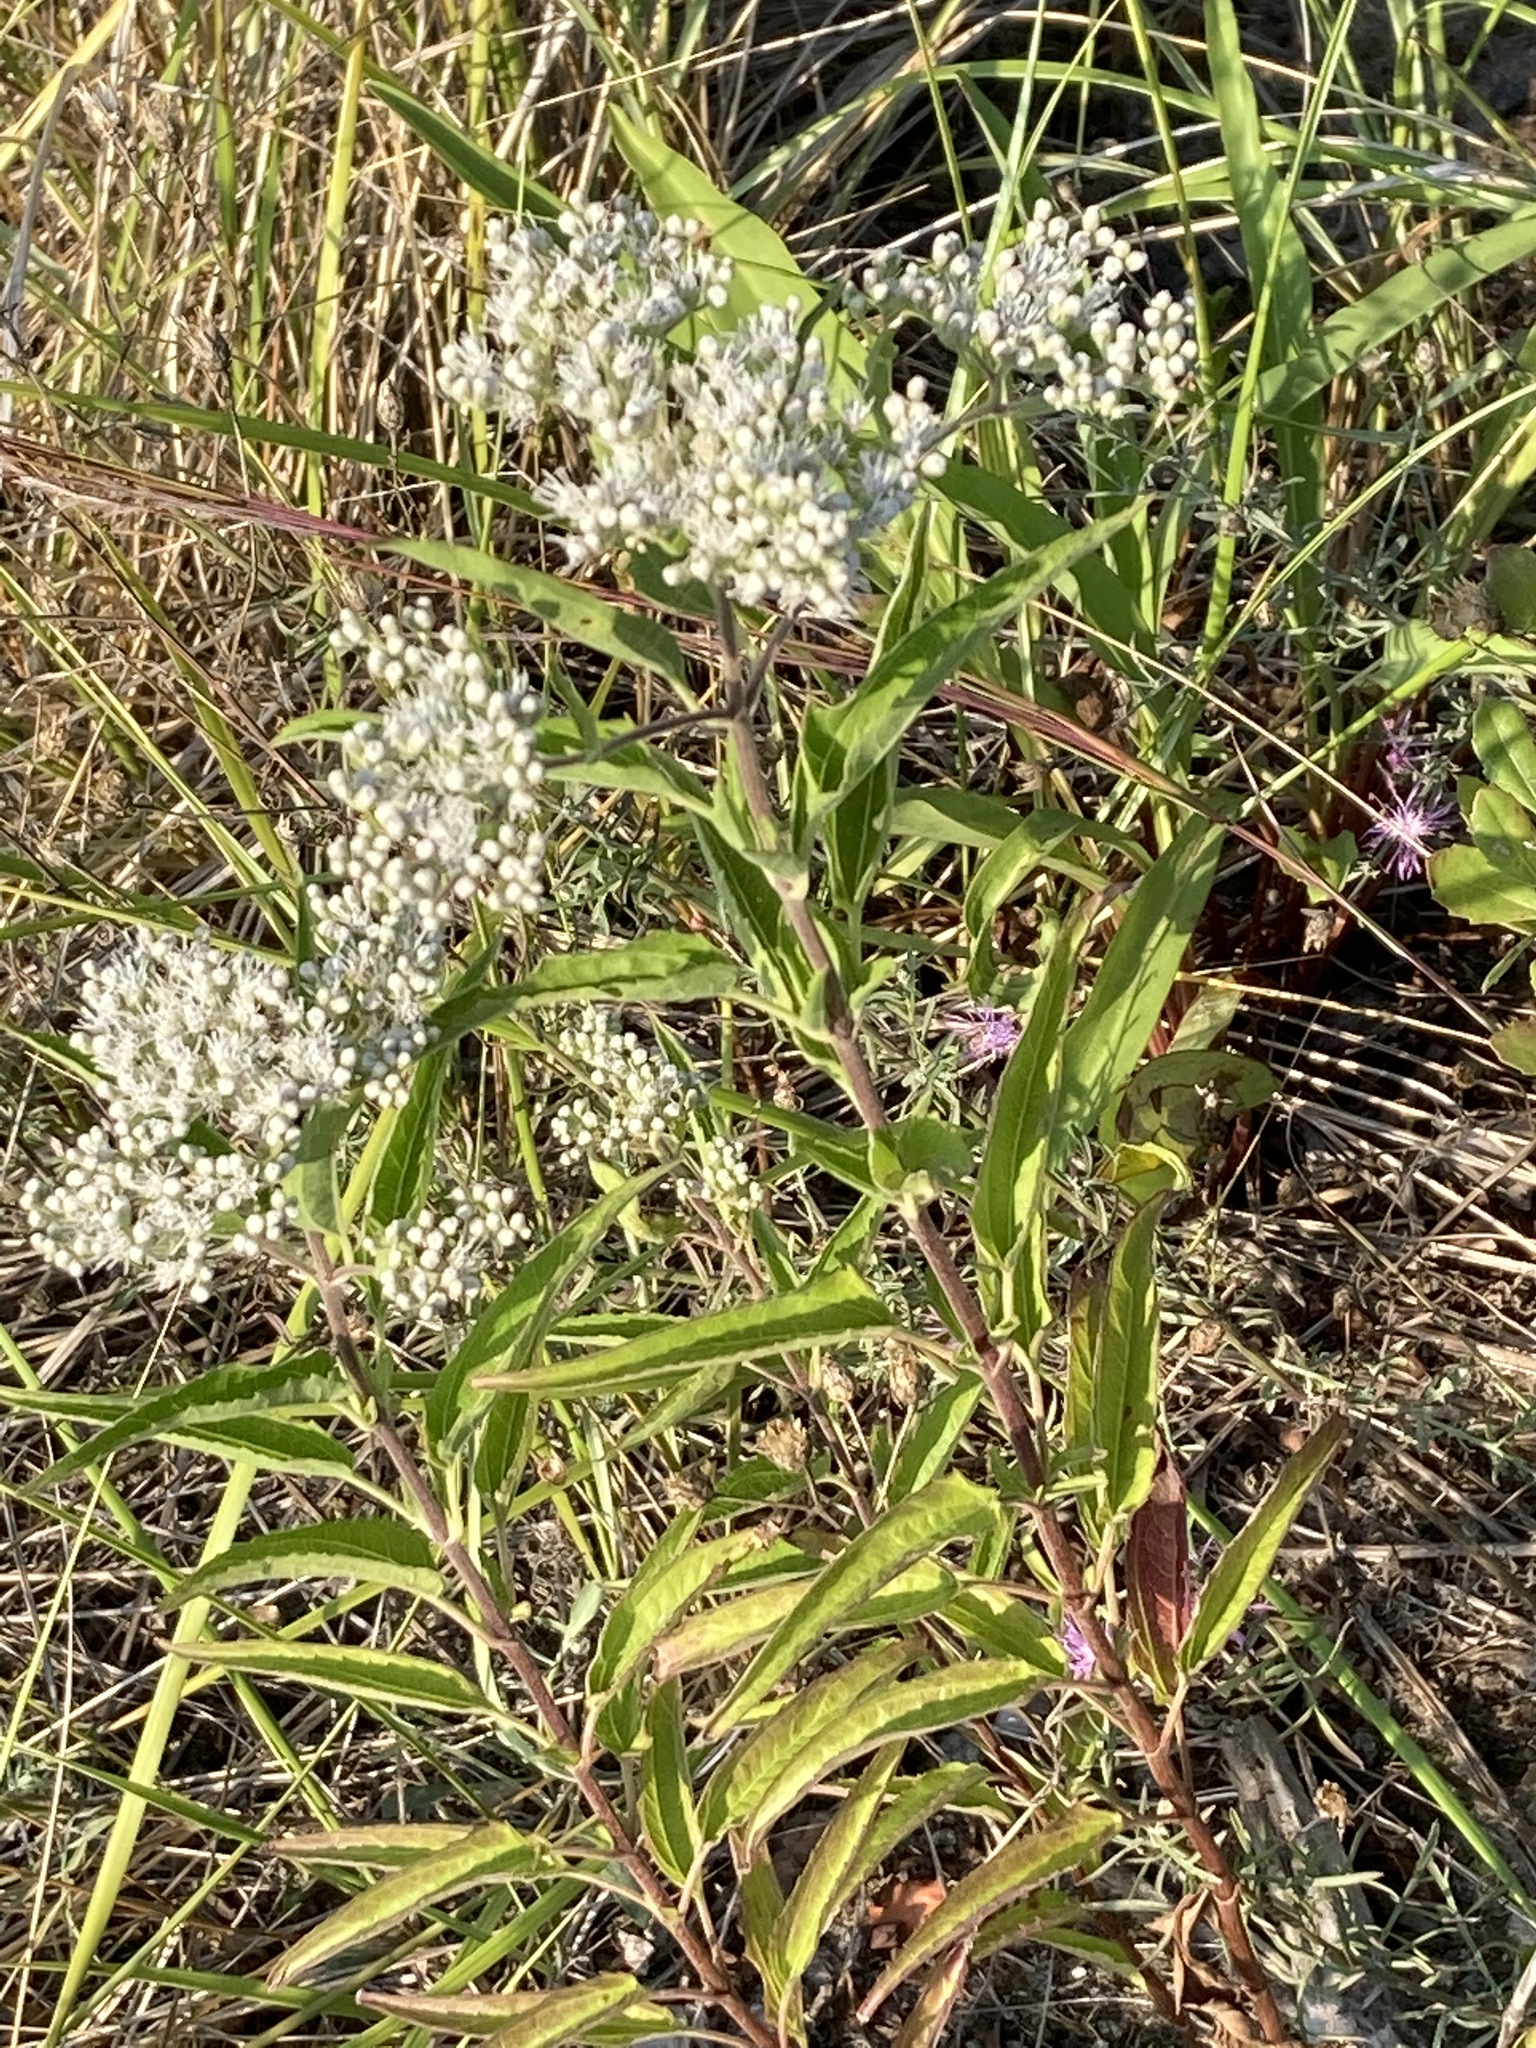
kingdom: Plantae
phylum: Tracheophyta
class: Magnoliopsida
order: Asterales
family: Asteraceae
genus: Eupatorium
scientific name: Eupatorium serotinum
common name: Late boneset
